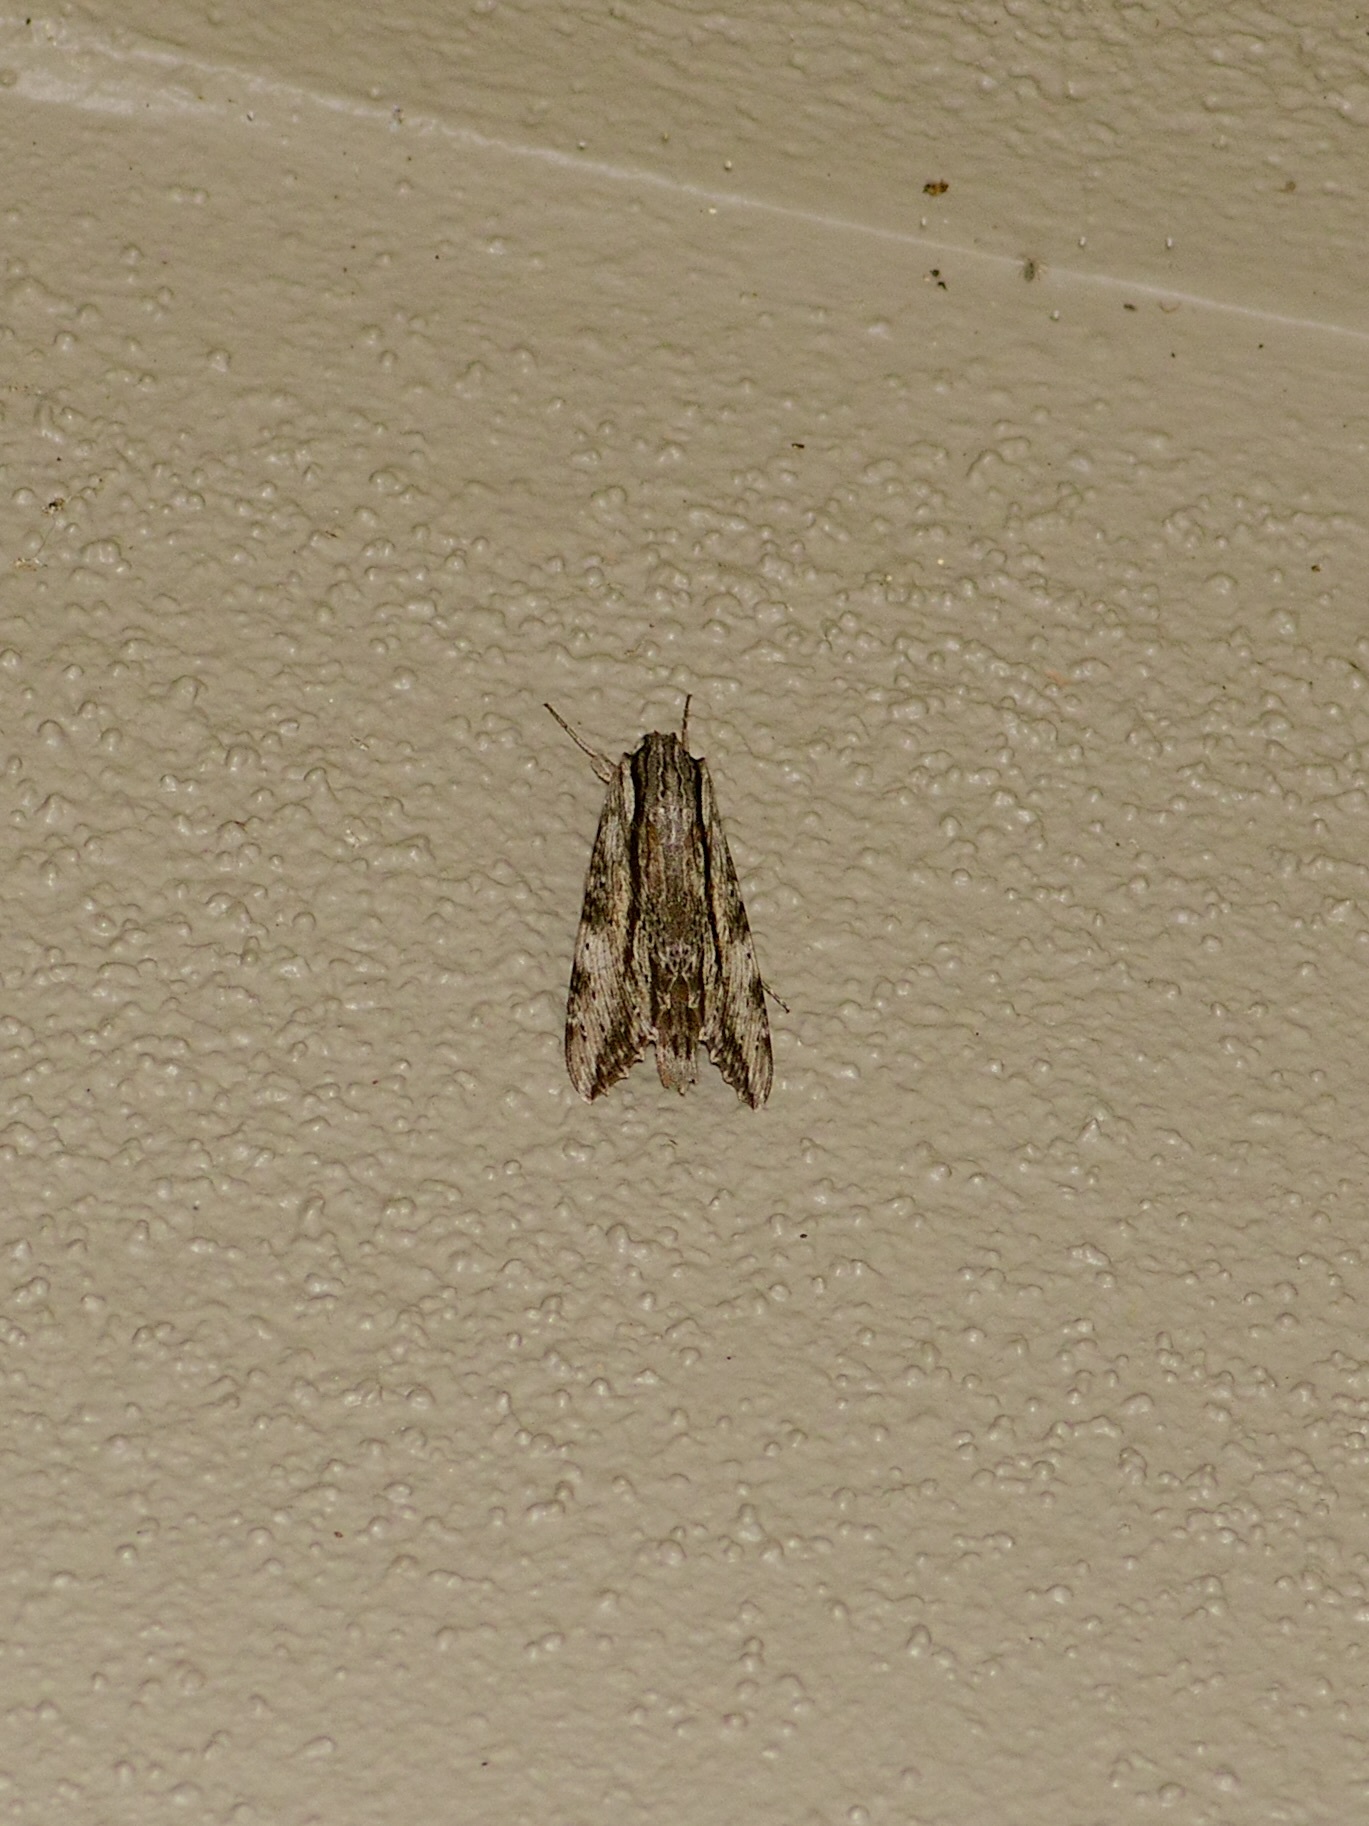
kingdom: Animalia
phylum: Arthropoda
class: Insecta
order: Lepidoptera
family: Sphingidae
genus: Erinnyis
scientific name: Erinnyis obscura
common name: Obscure sphinx
